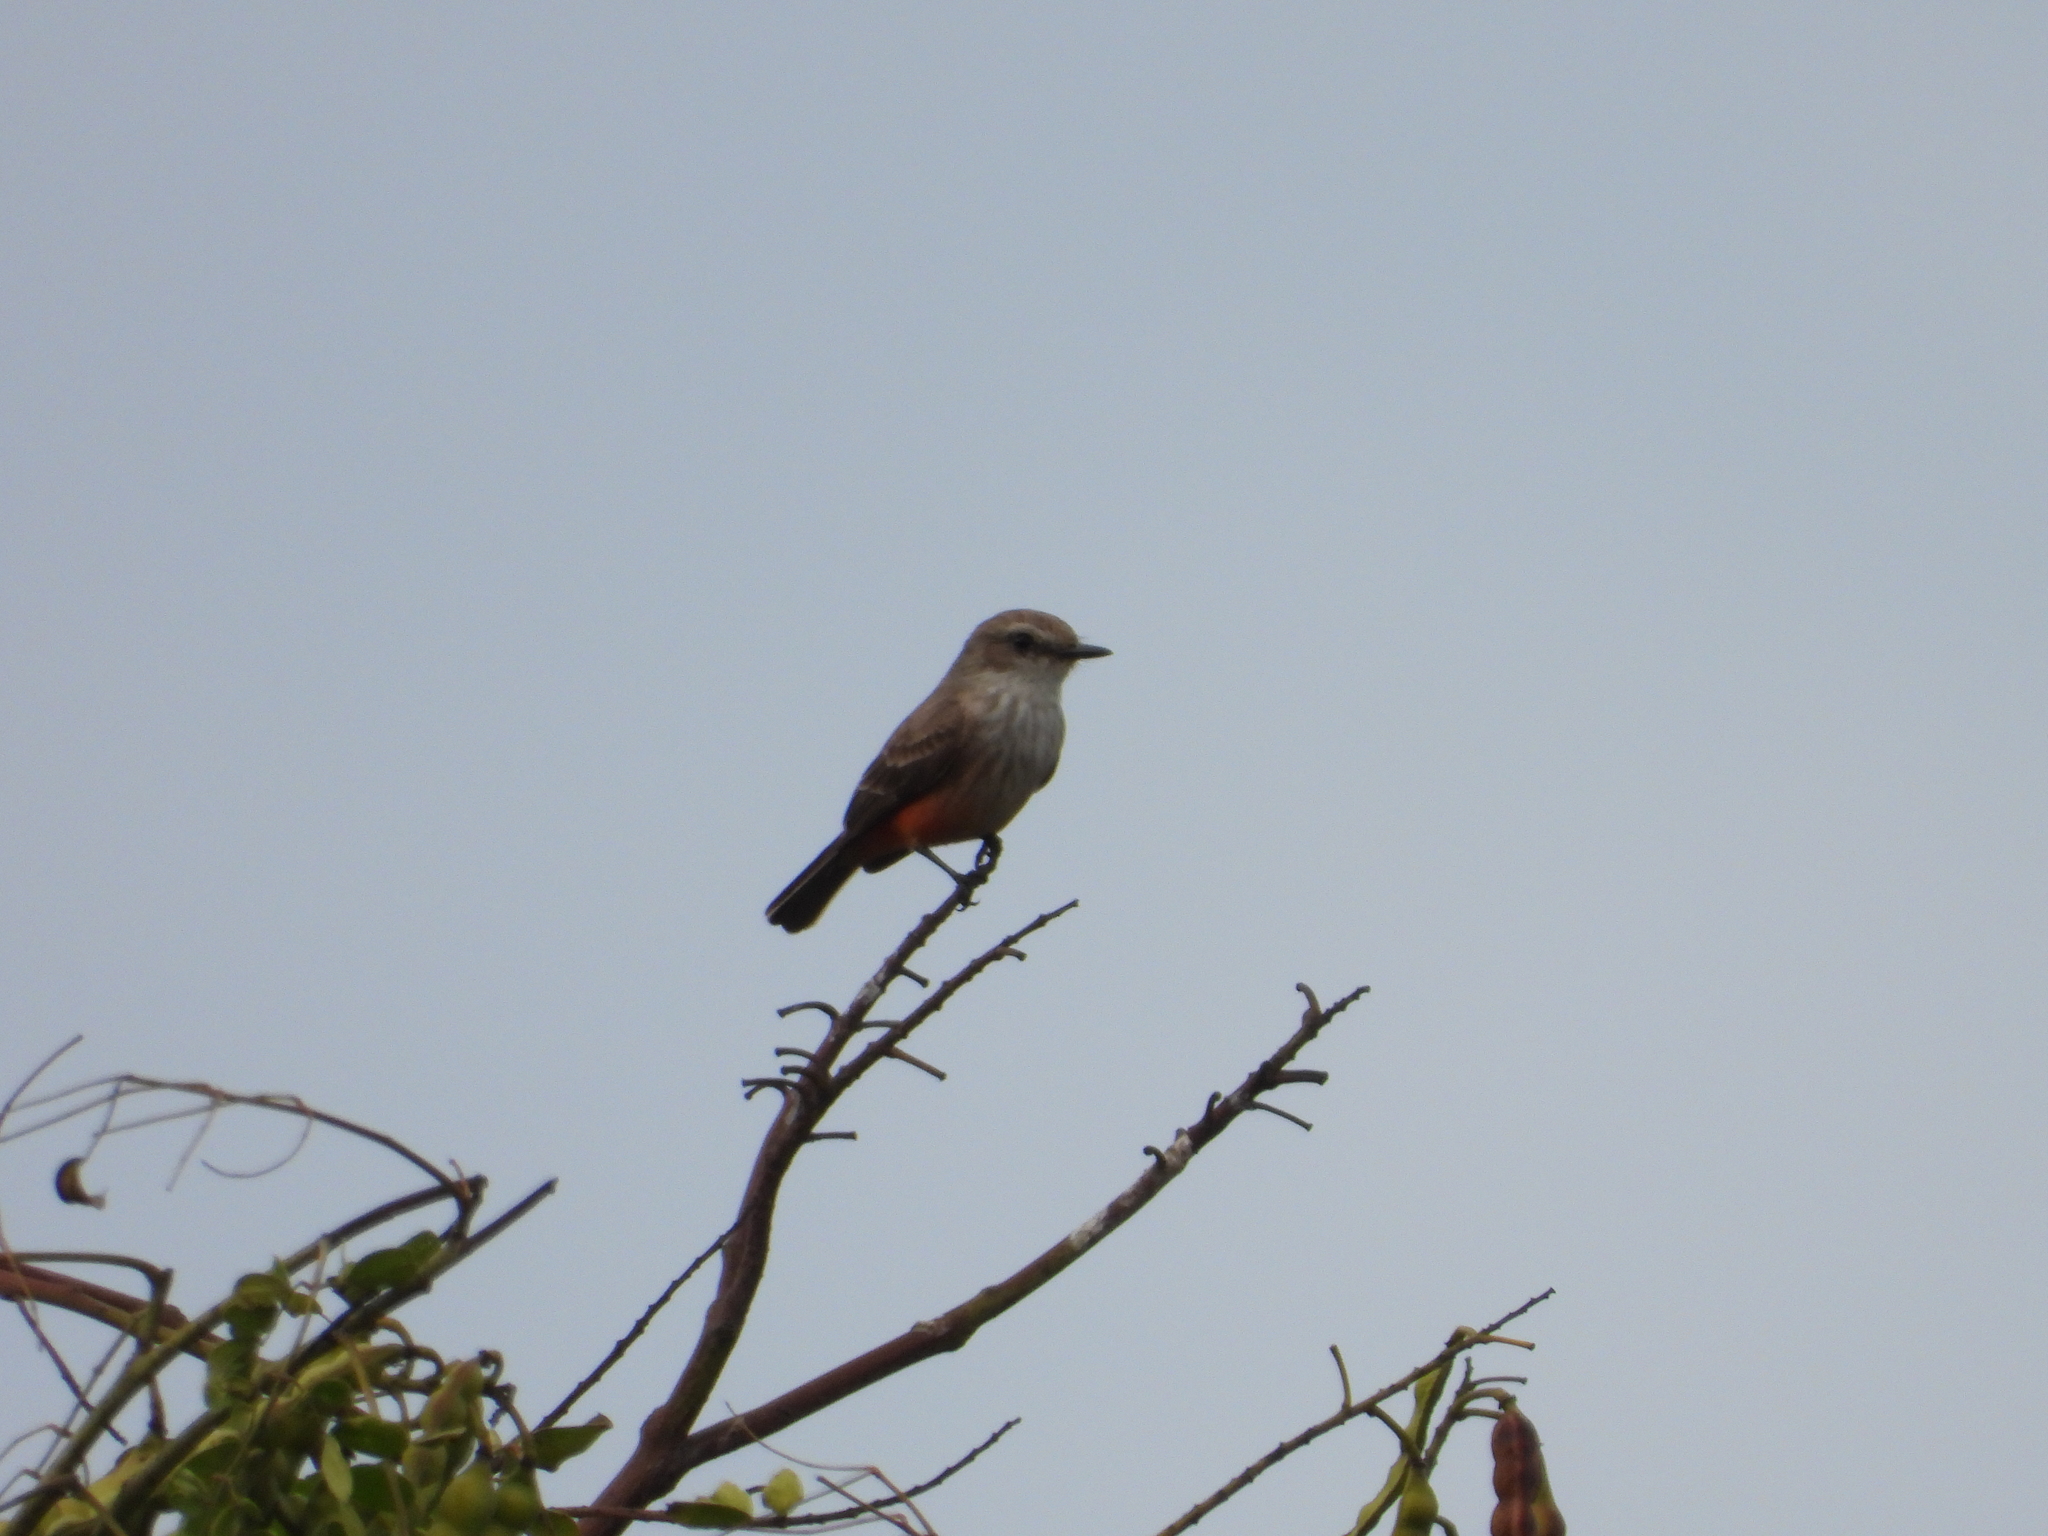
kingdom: Animalia
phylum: Chordata
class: Aves
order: Passeriformes
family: Tyrannidae
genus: Pyrocephalus
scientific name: Pyrocephalus rubinus
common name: Vermilion flycatcher
